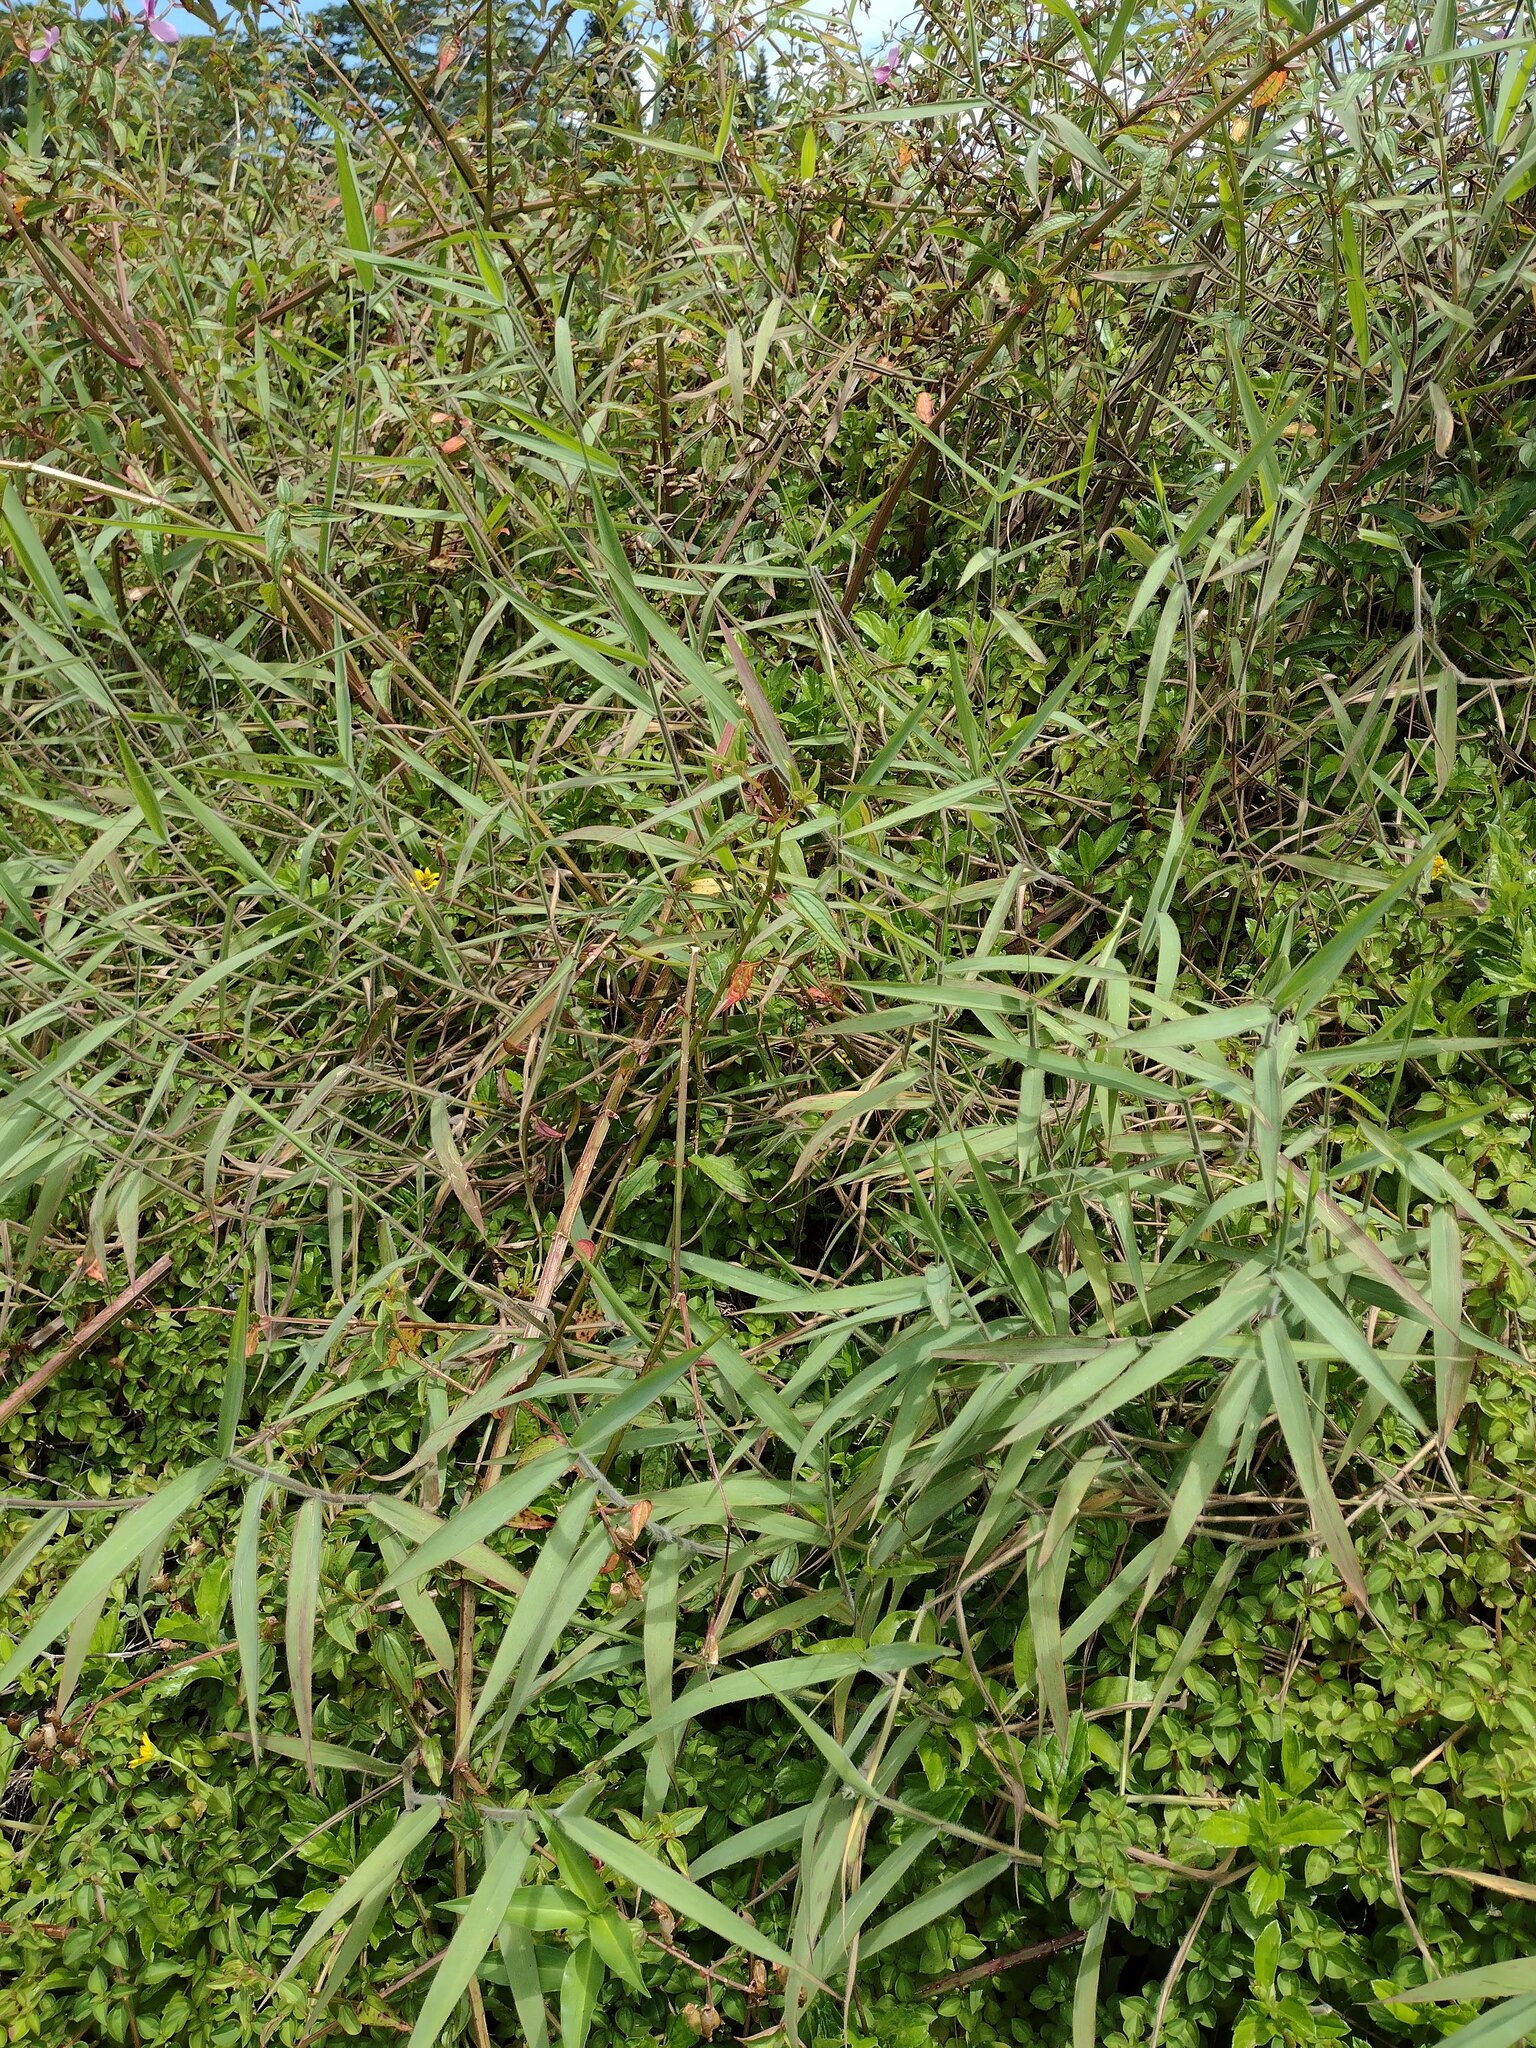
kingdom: Plantae
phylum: Tracheophyta
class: Liliopsida
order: Poales
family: Poaceae
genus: Urochloa
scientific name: Urochloa mutica
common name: Para grass
